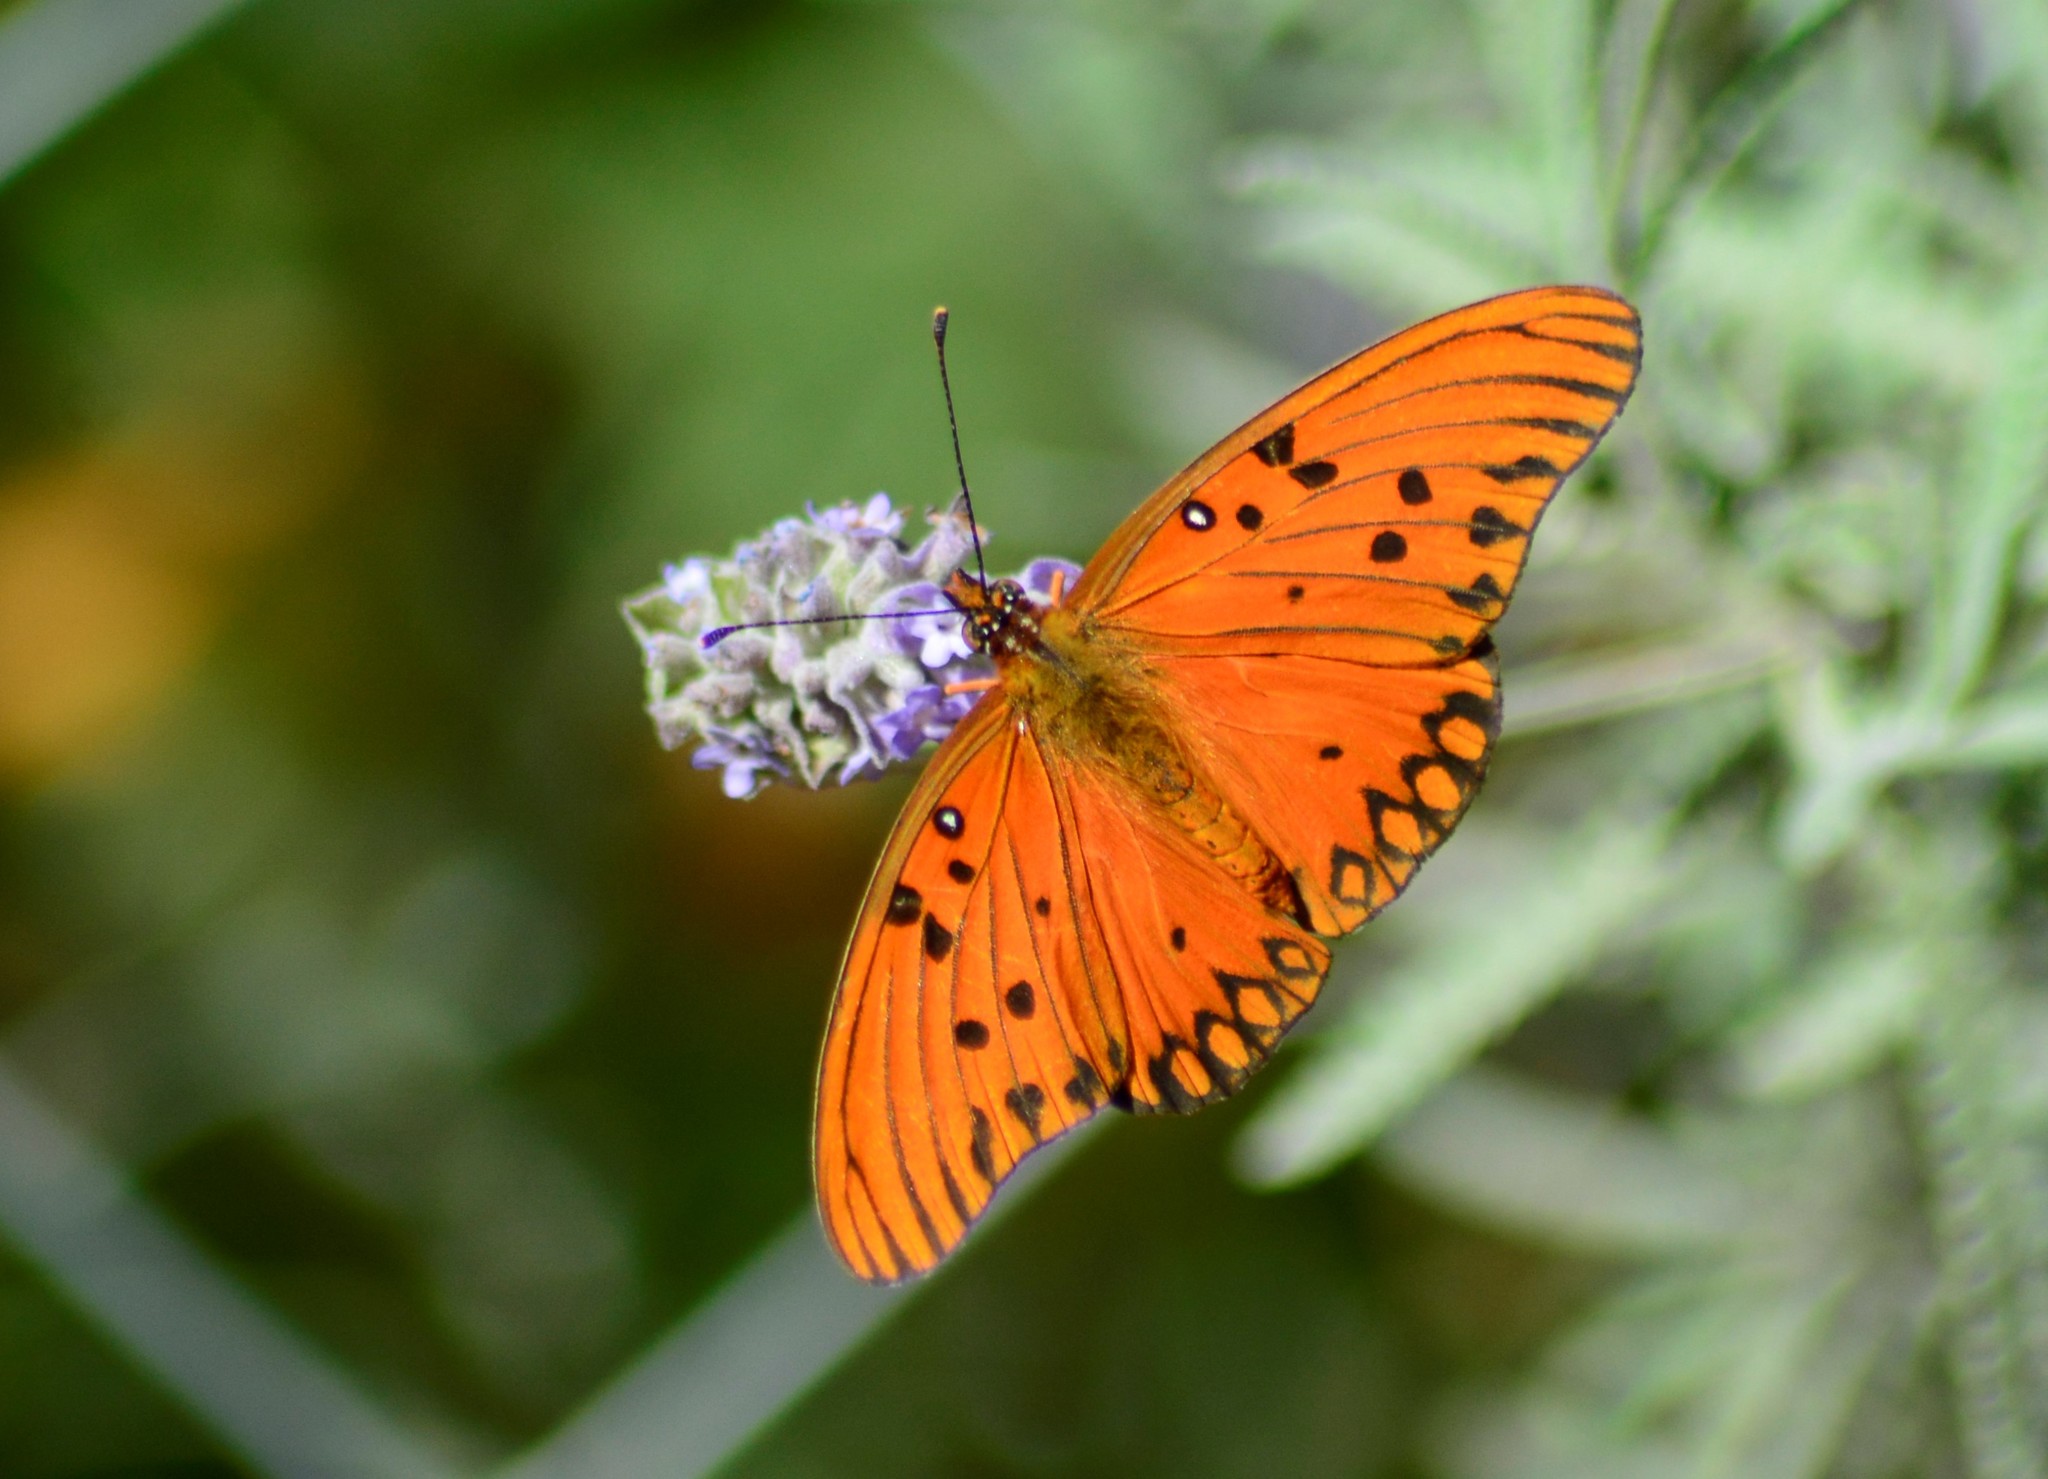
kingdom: Animalia
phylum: Arthropoda
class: Insecta
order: Lepidoptera
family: Nymphalidae
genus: Dione
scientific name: Dione vanillae
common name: Gulf fritillary
